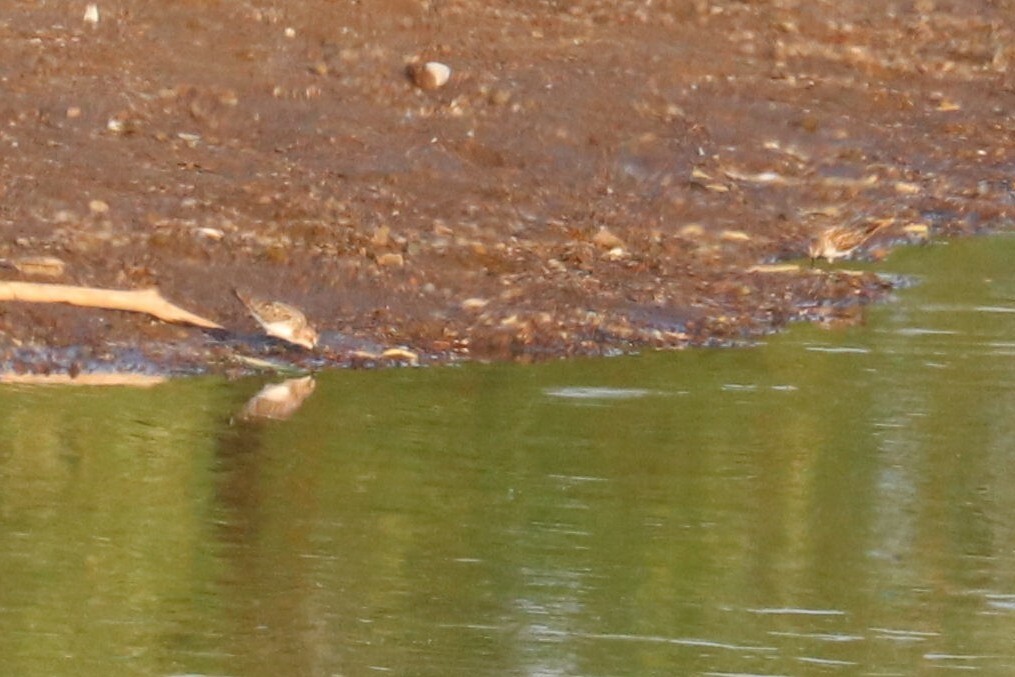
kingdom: Animalia
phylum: Chordata
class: Aves
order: Charadriiformes
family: Scolopacidae
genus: Calidris
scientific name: Calidris minuta
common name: Little stint
